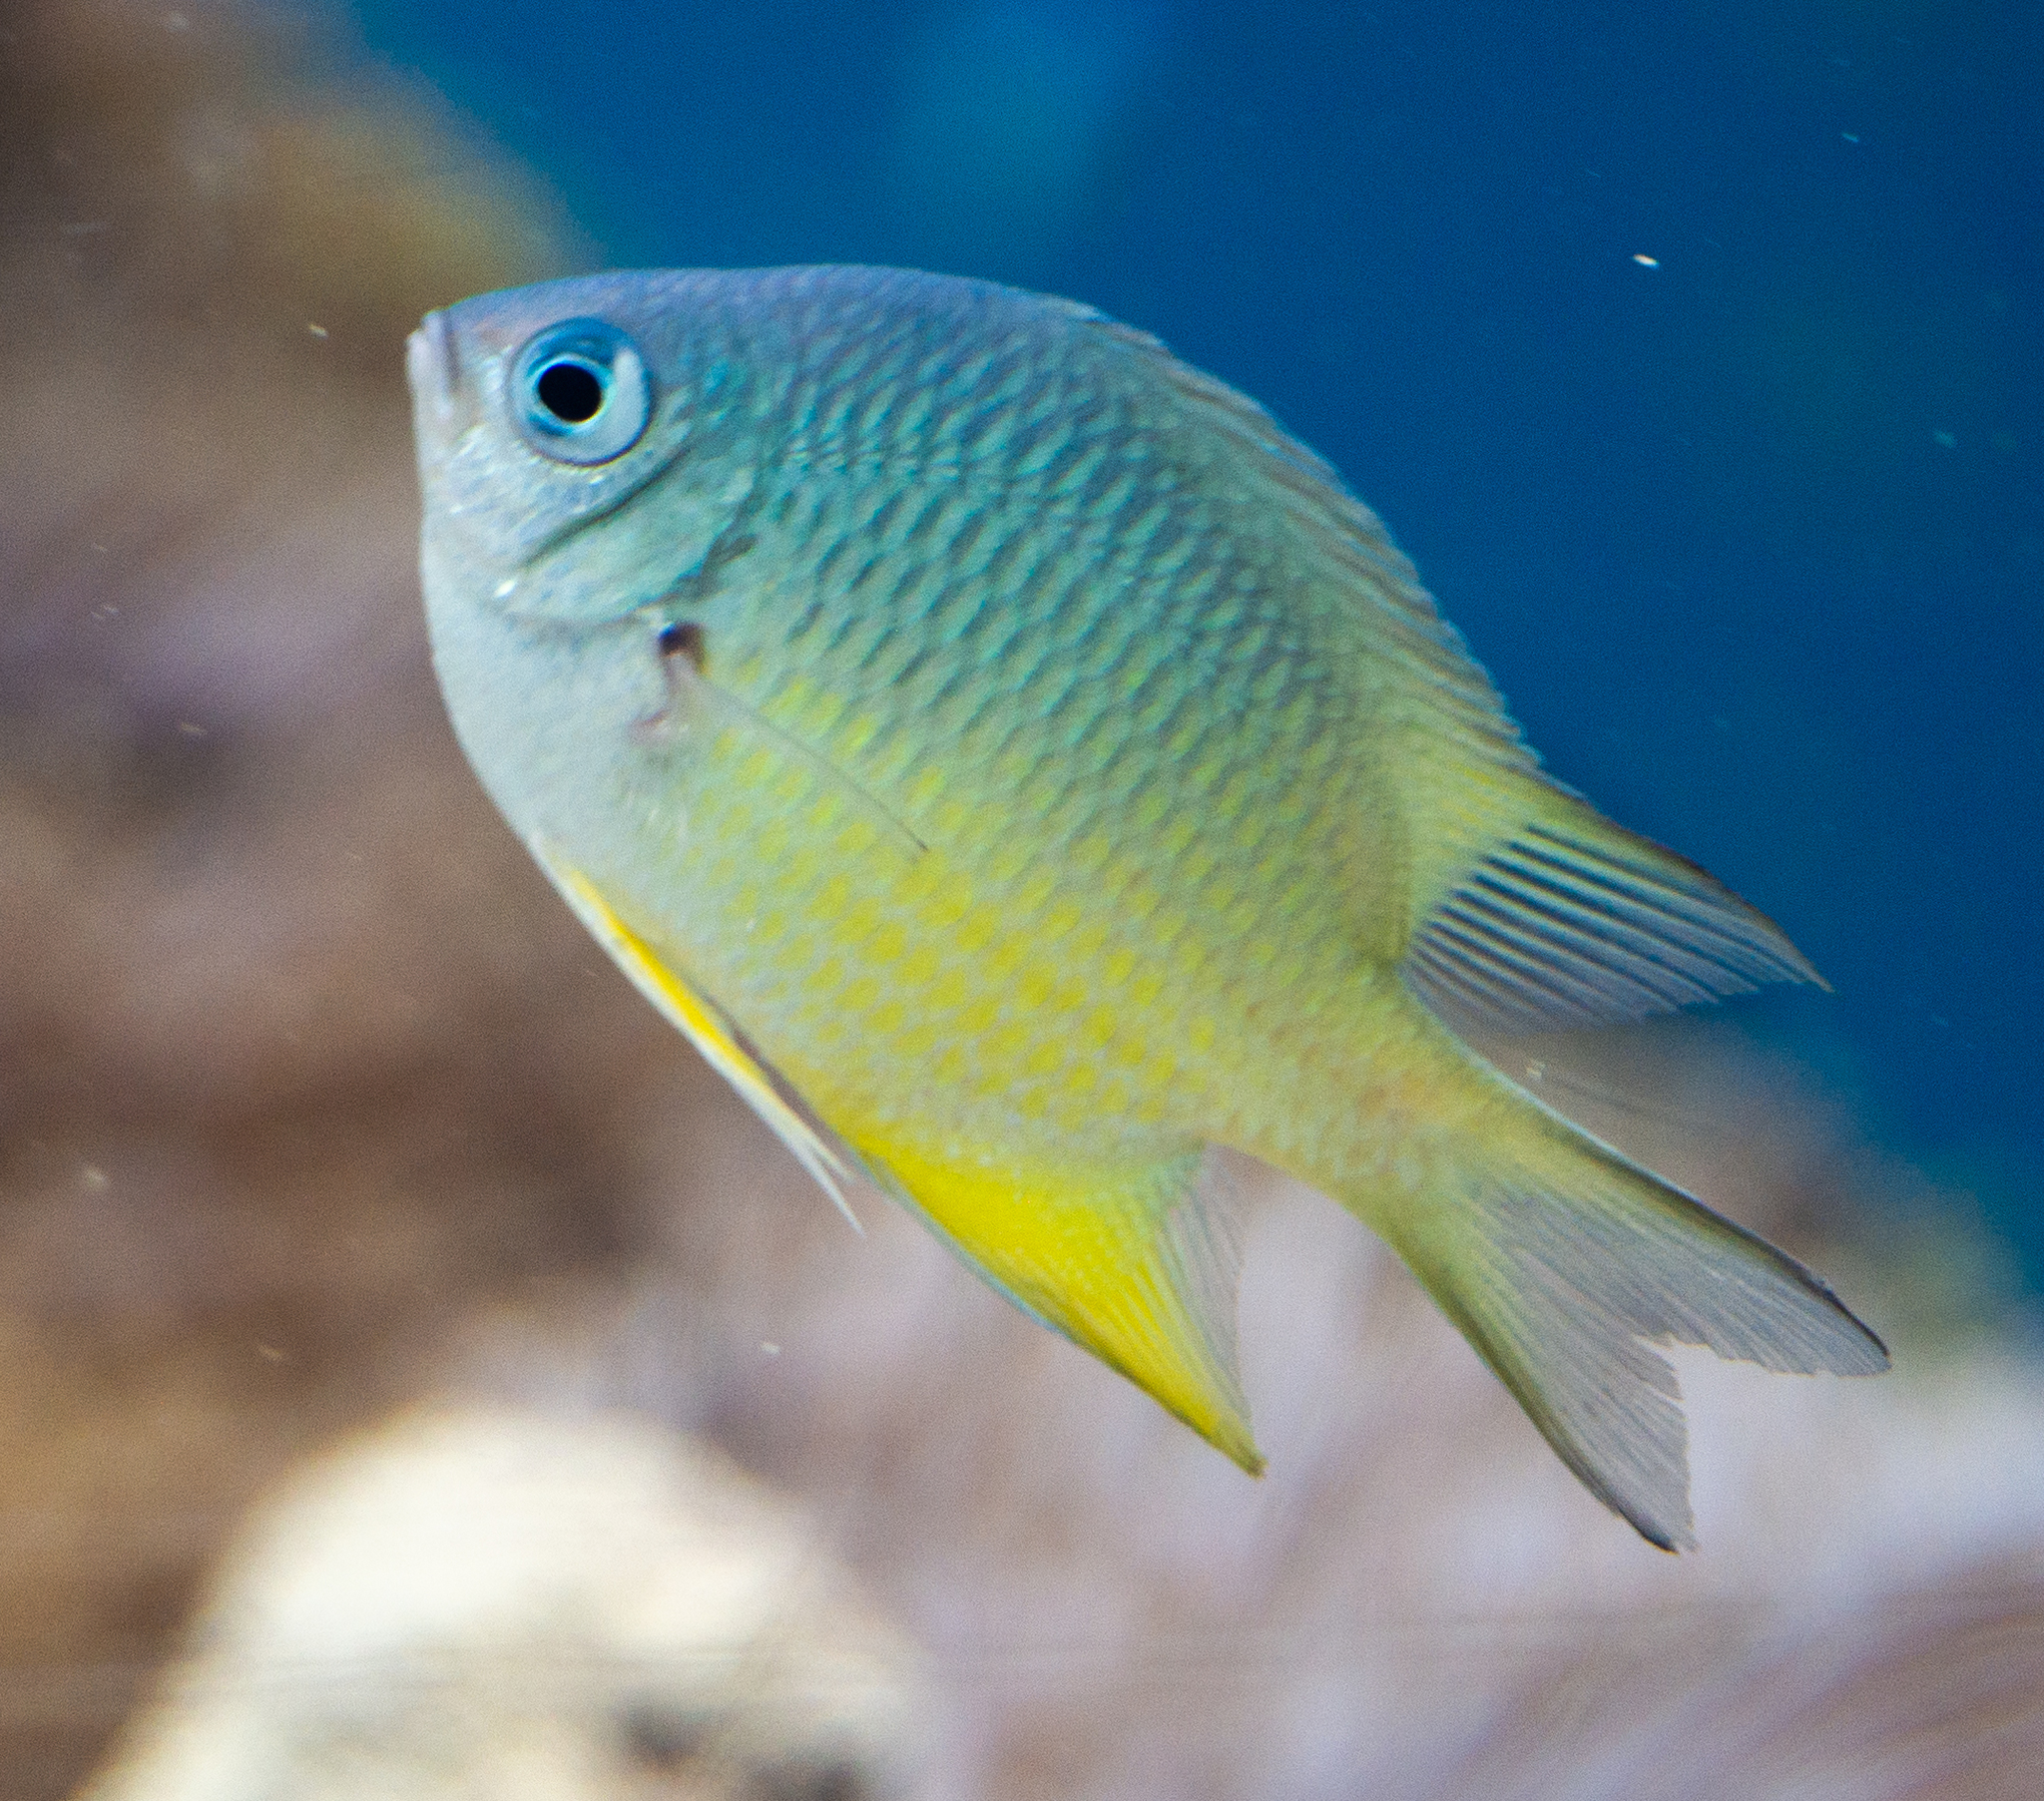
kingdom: Animalia
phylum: Chordata
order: Perciformes
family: Pomacentridae
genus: Amblyglyphidodon
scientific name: Amblyglyphidodon indicus
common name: Maldives damselfish
